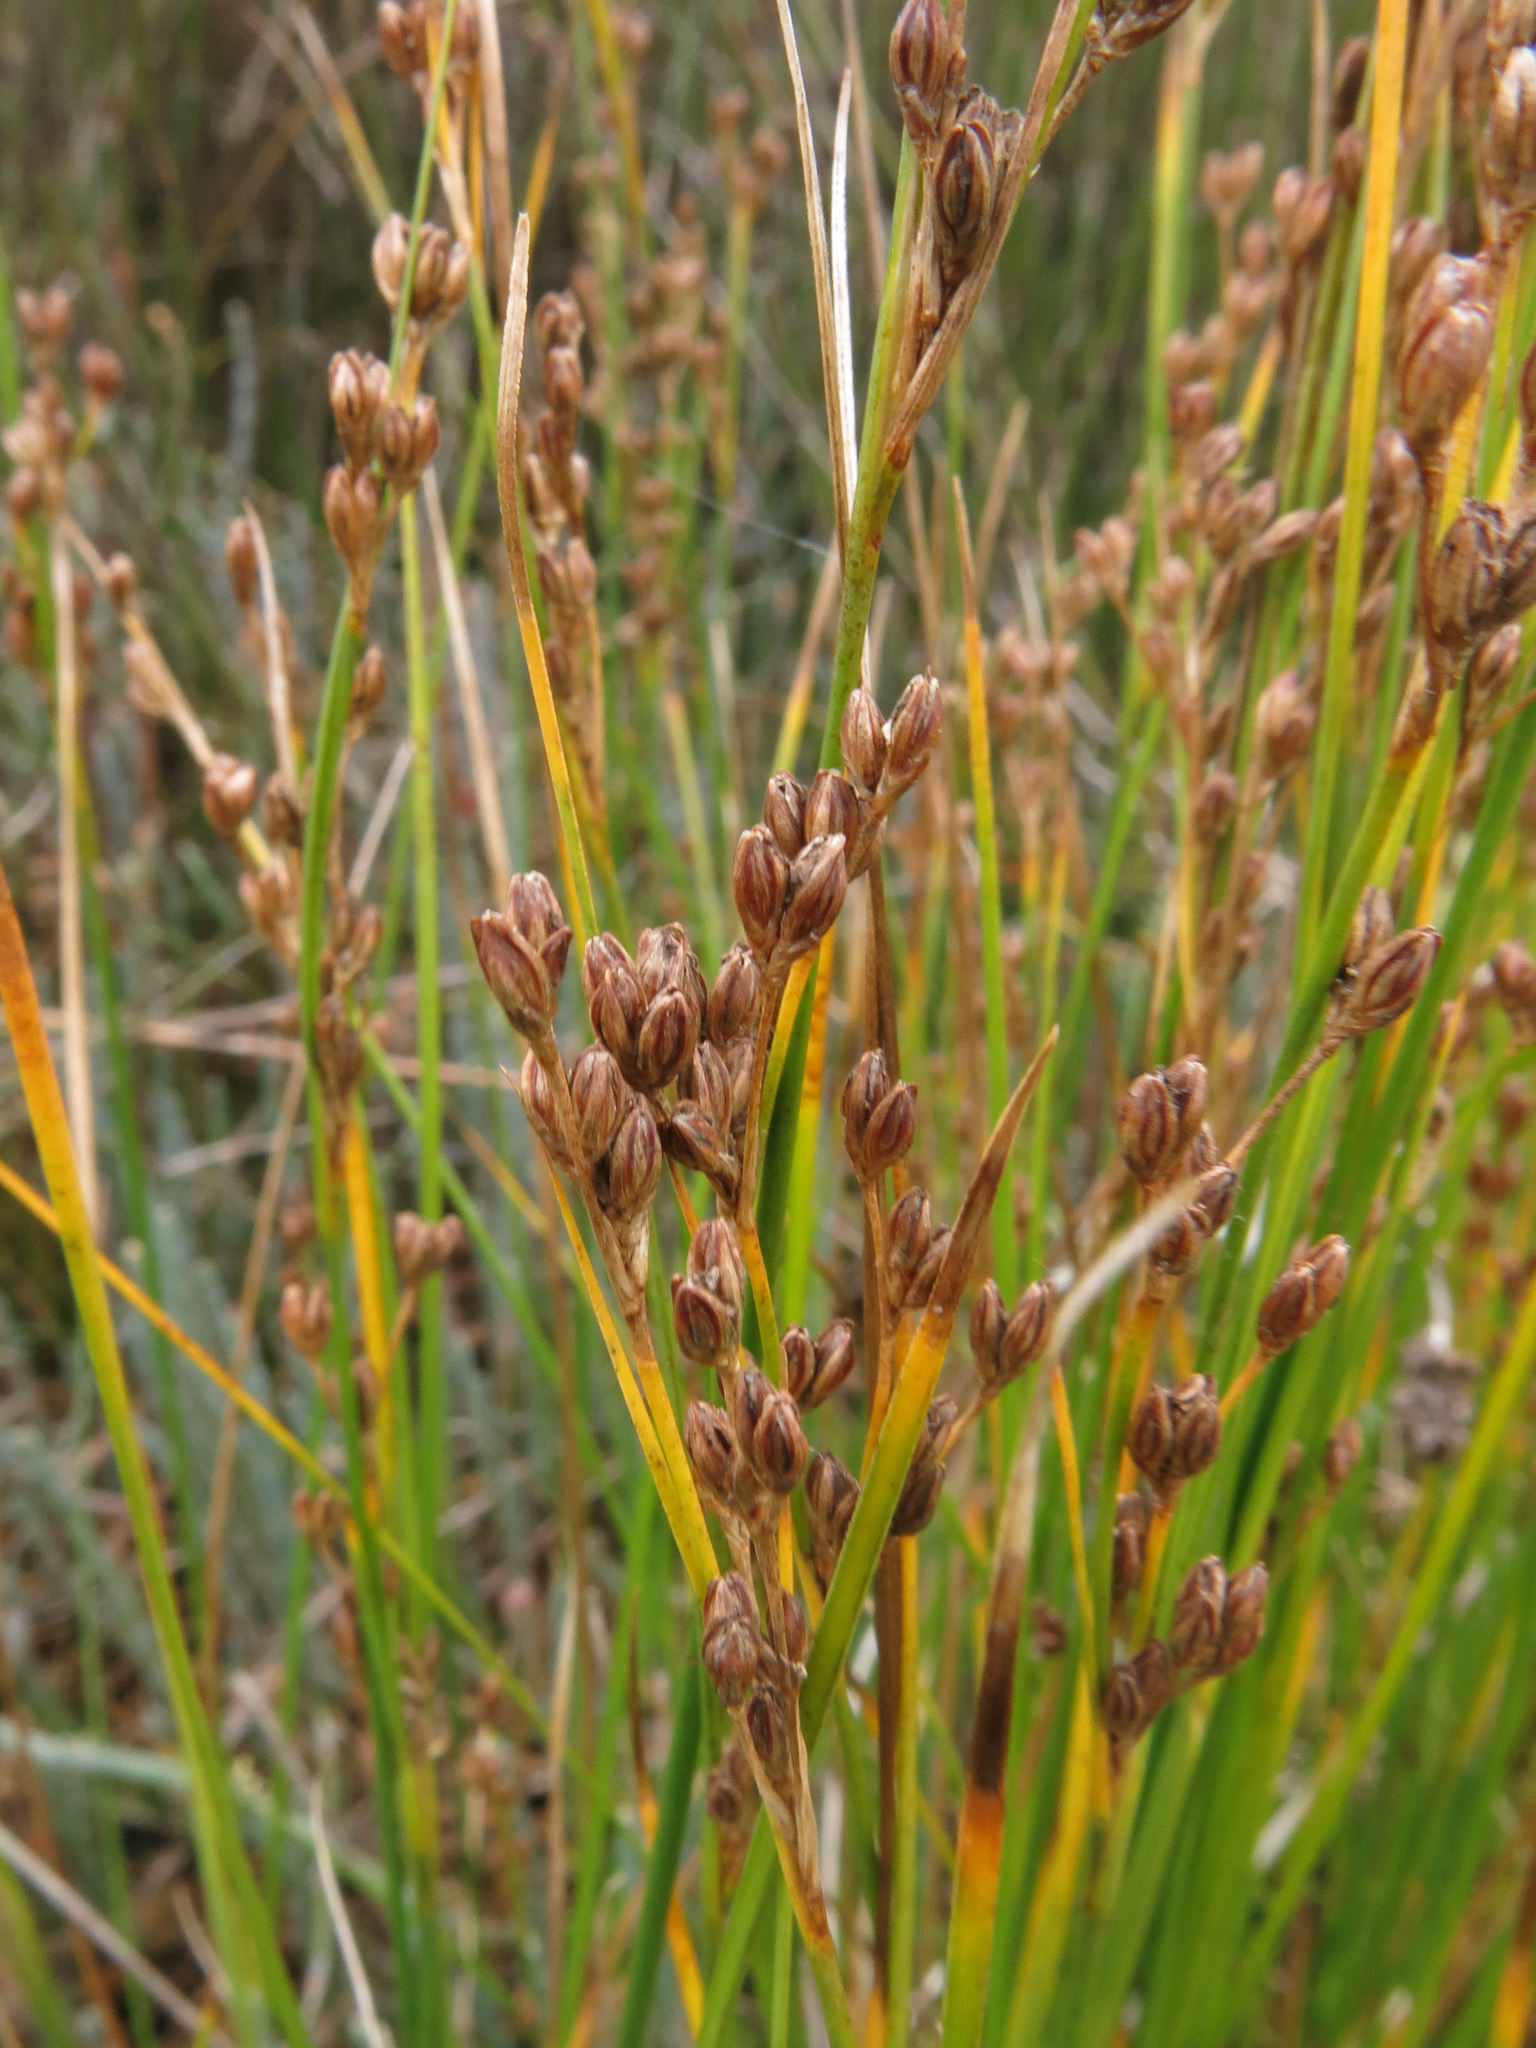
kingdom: Plantae
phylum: Tracheophyta
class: Liliopsida
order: Poales
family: Juncaceae
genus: Juncus
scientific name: Juncus gerardi
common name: Saltmarsh rush
